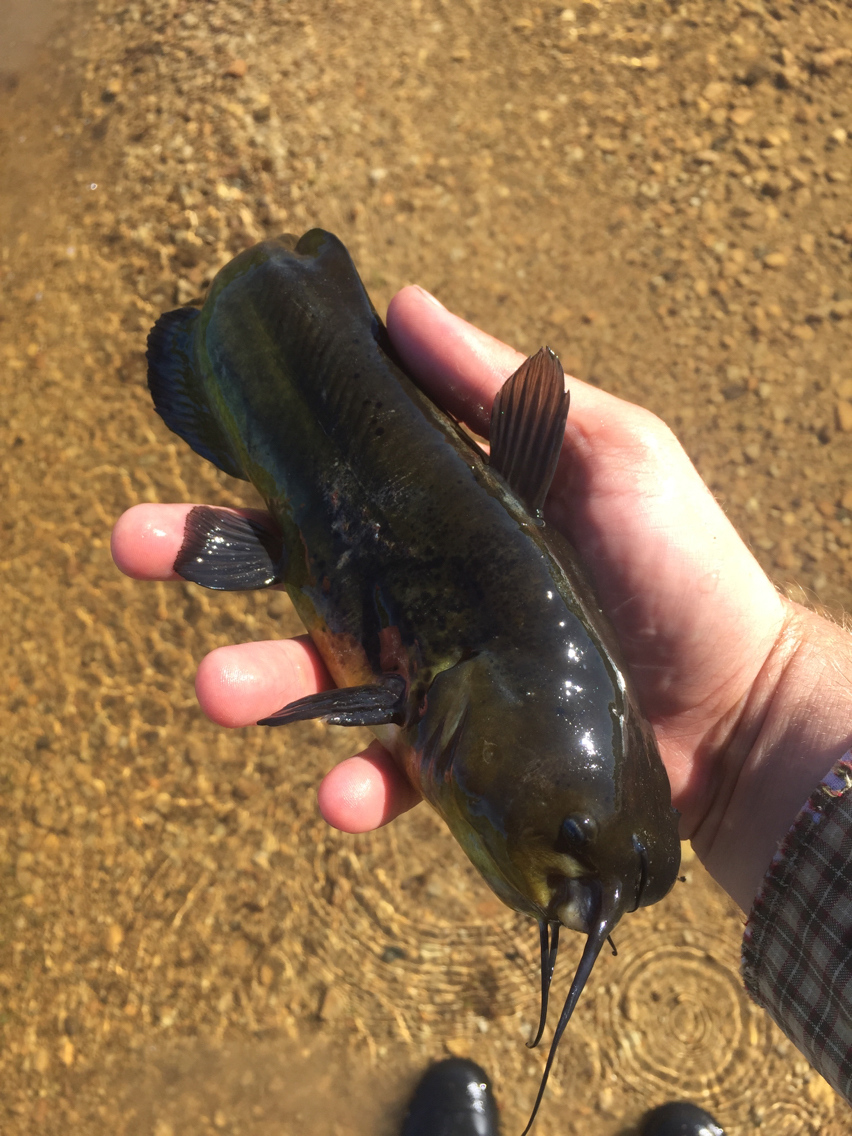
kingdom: Animalia
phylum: Chordata
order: Siluriformes
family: Ictaluridae
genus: Ameiurus
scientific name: Ameiurus melas
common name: Black bullhead
